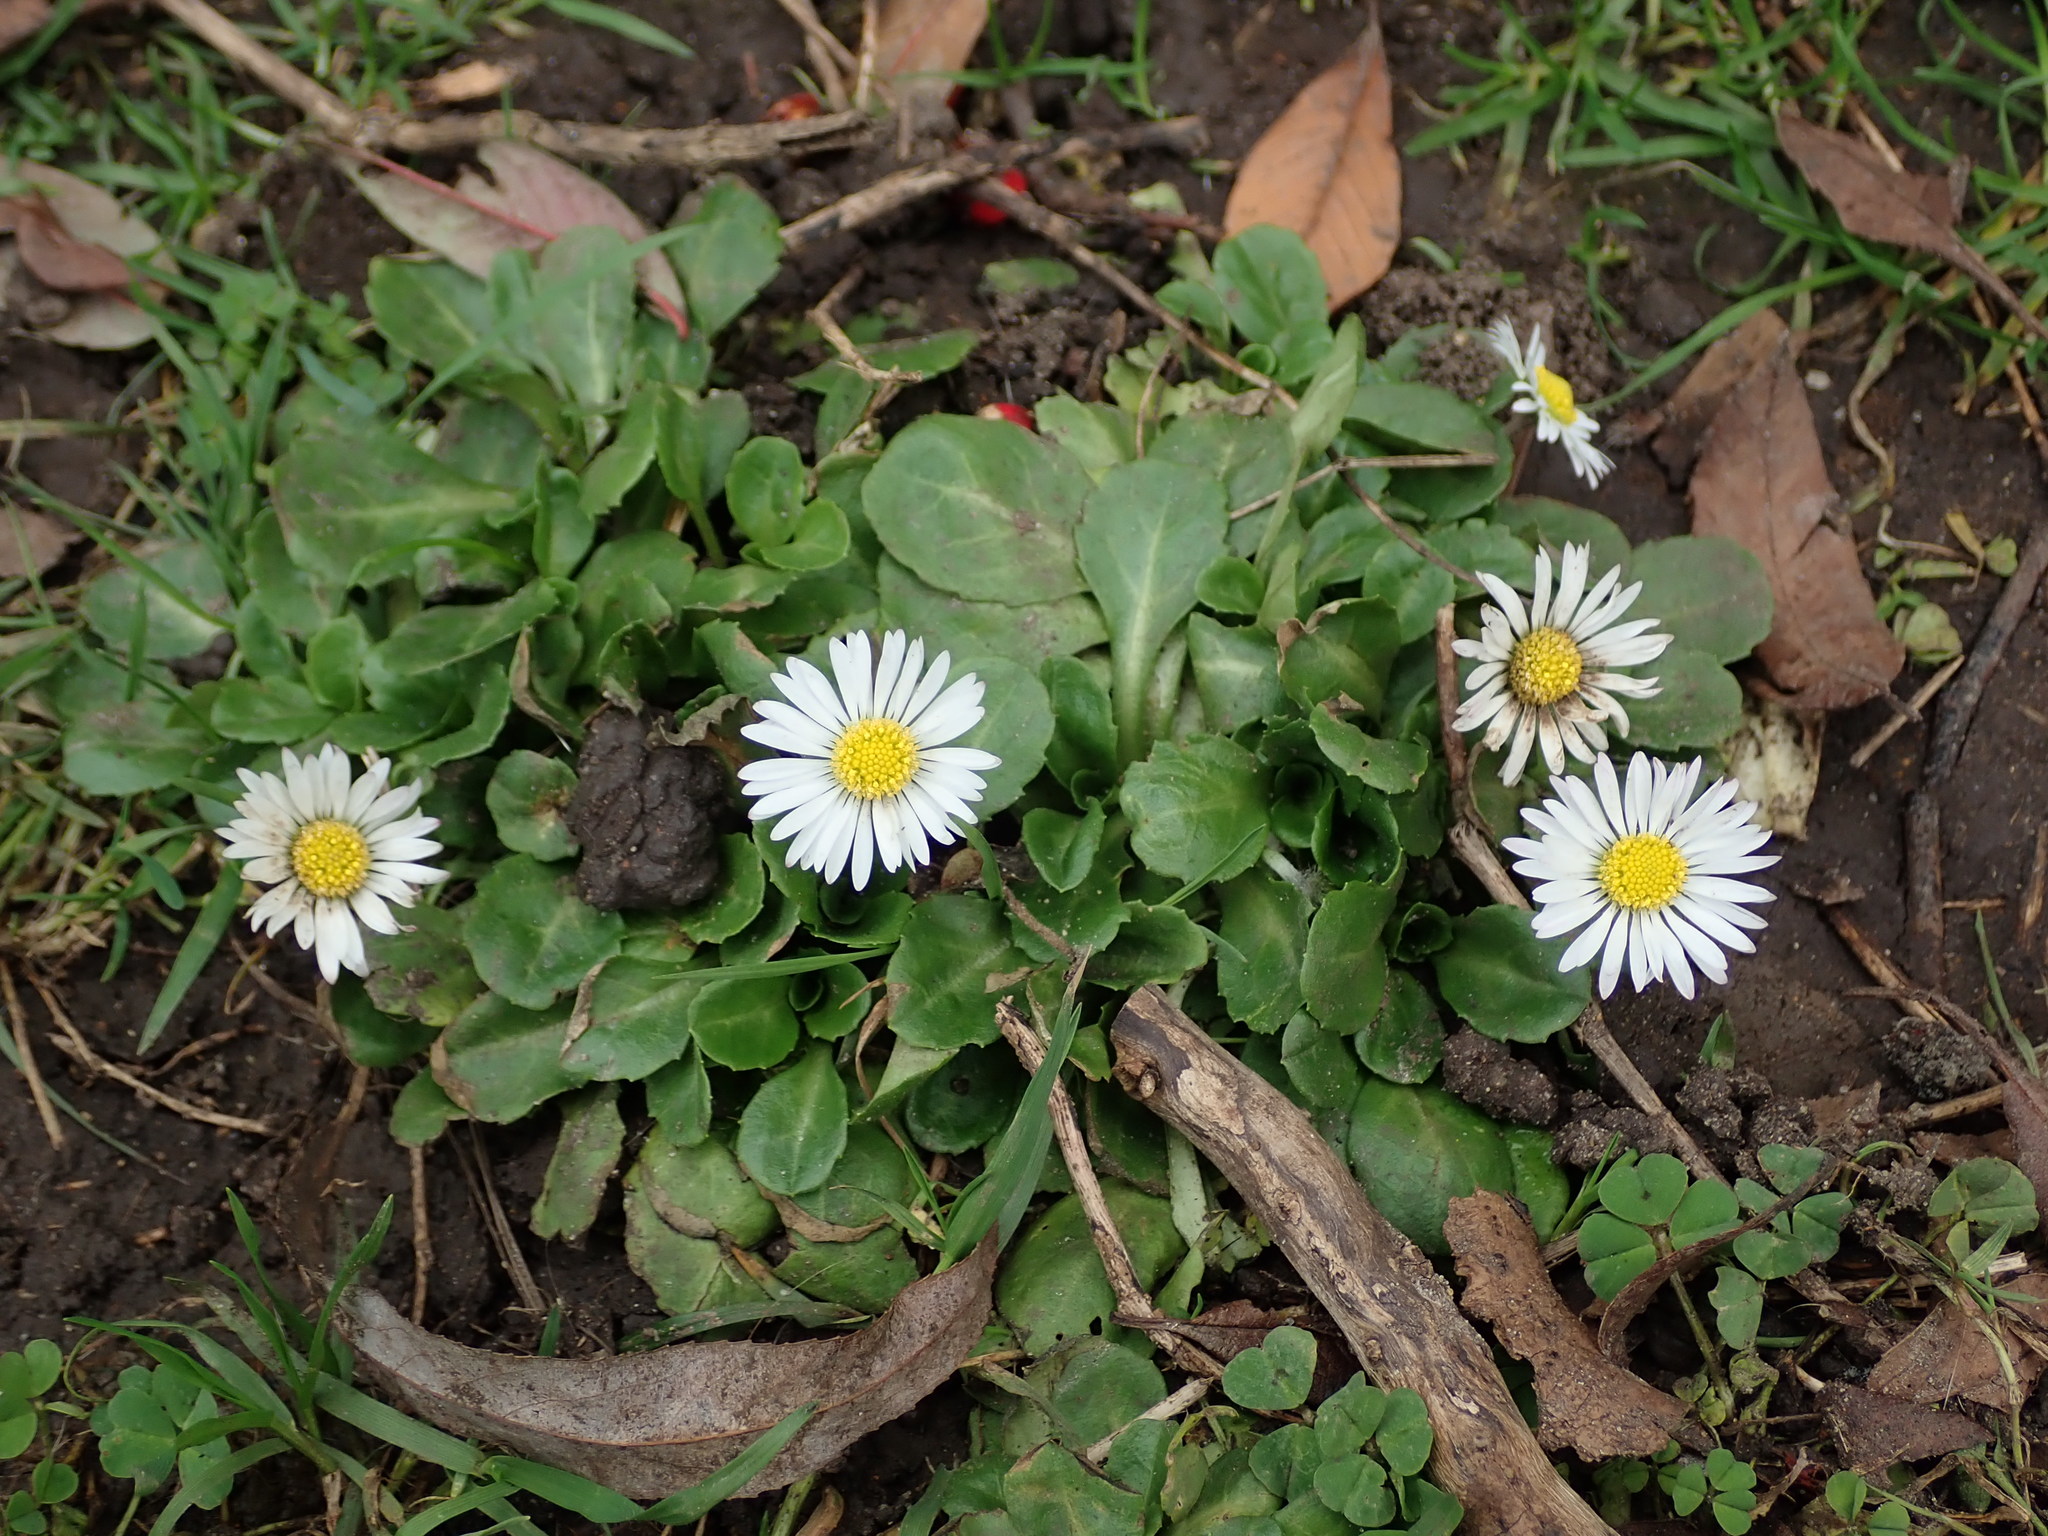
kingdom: Plantae
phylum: Tracheophyta
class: Magnoliopsida
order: Asterales
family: Asteraceae
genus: Bellis
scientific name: Bellis perennis
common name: Lawndaisy
